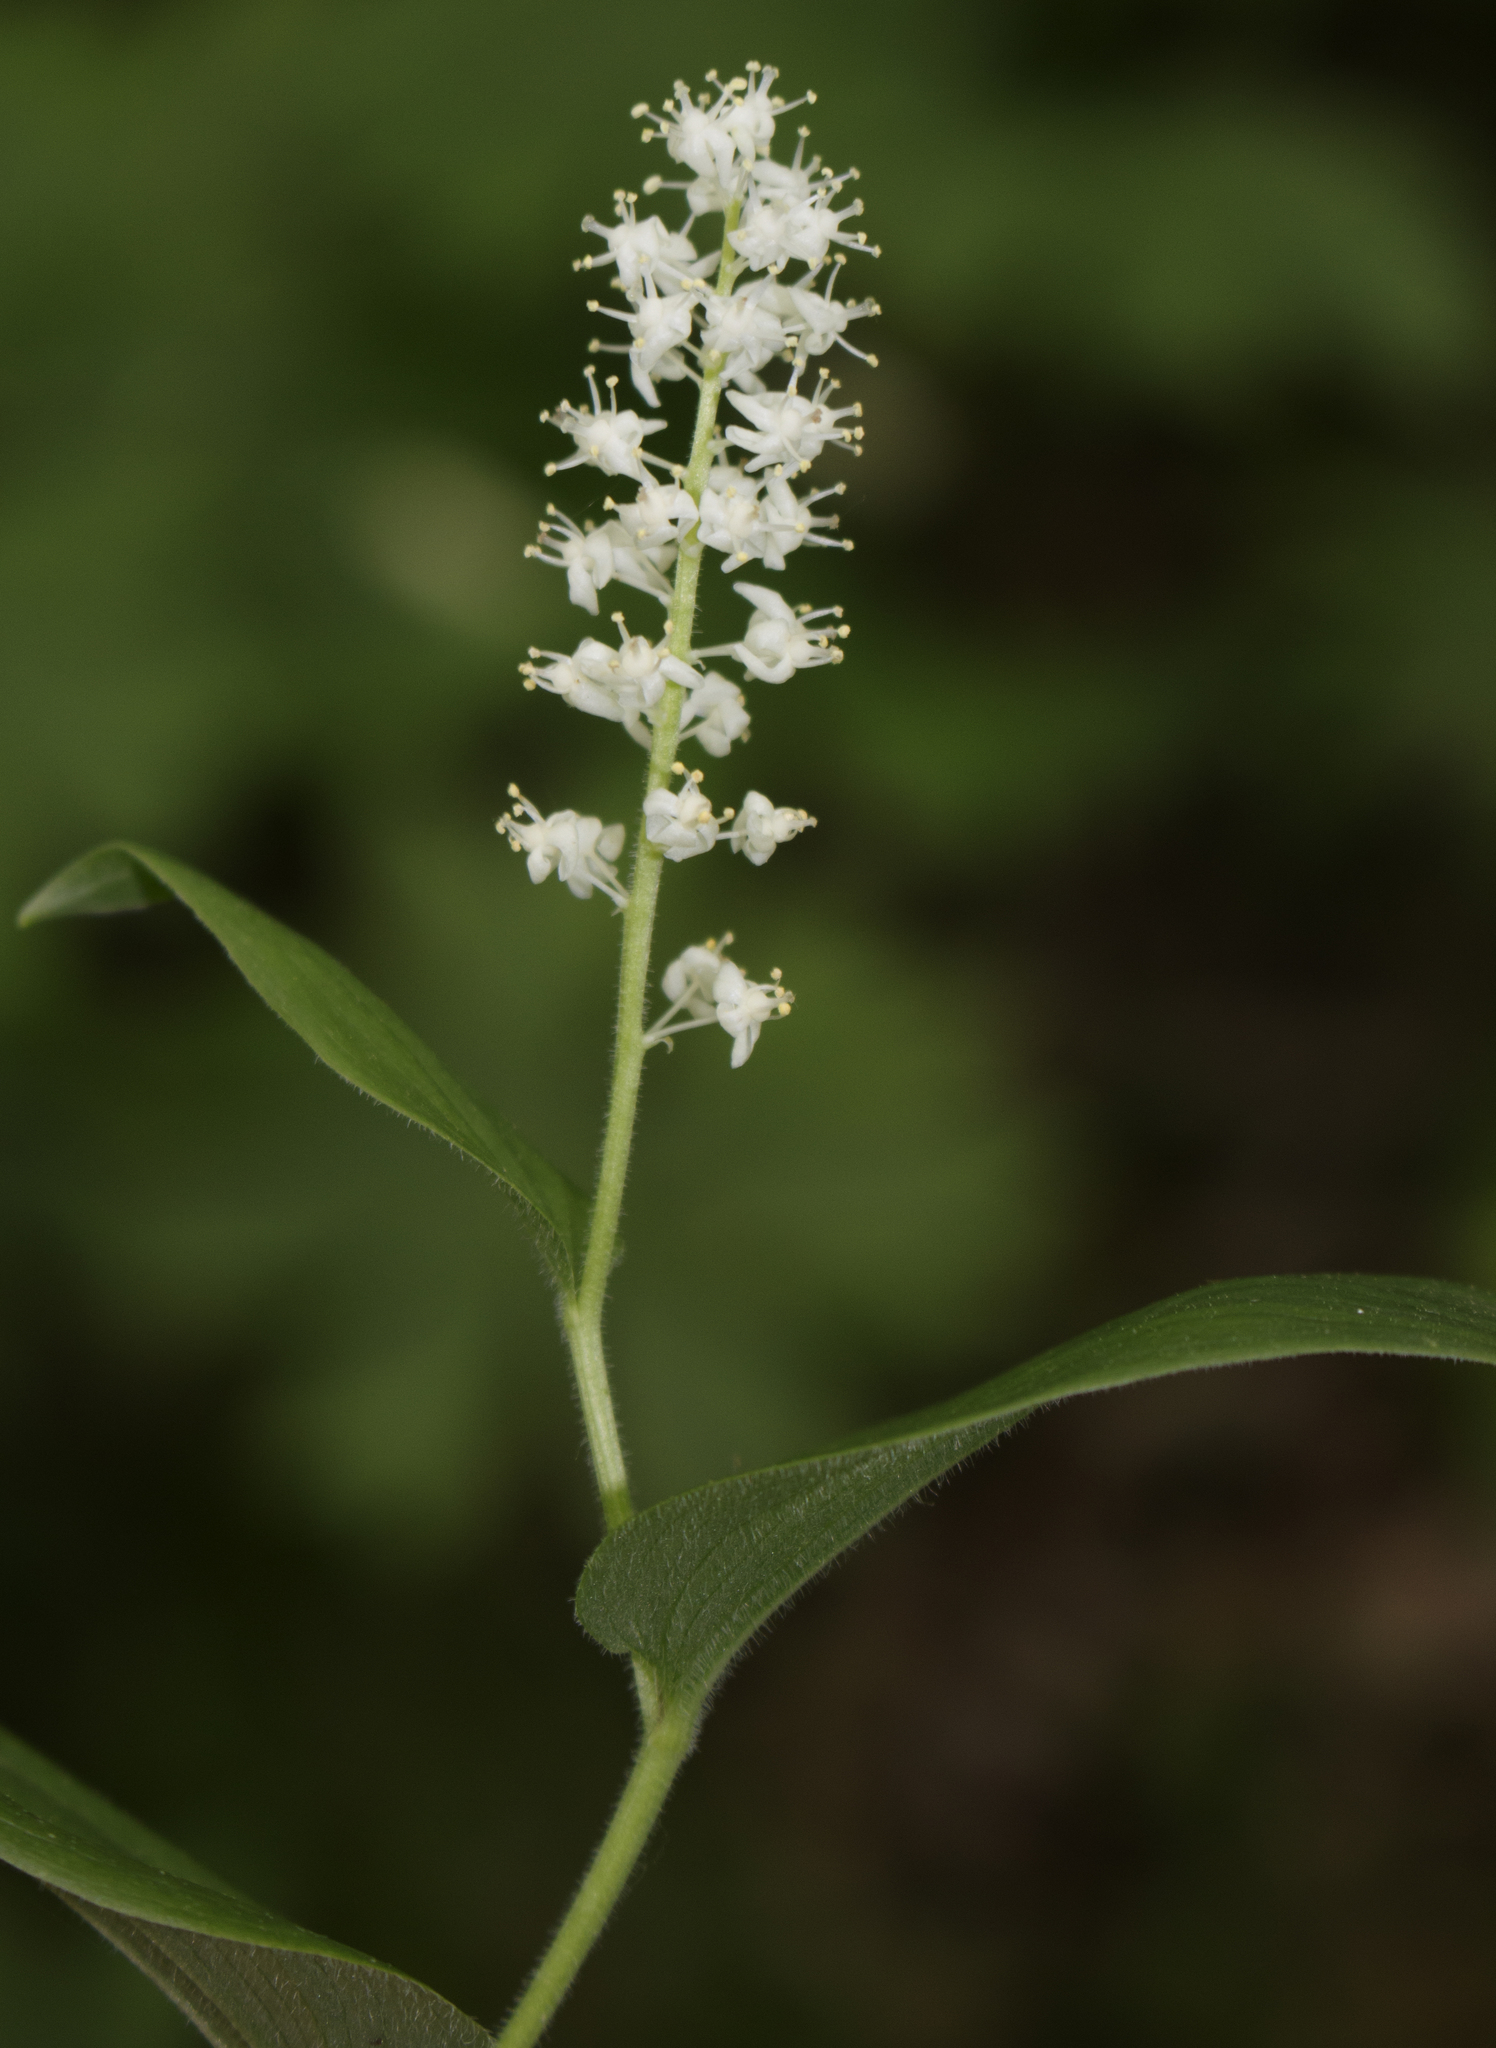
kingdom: Plantae
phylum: Tracheophyta
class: Liliopsida
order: Asparagales
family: Asparagaceae
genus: Maianthemum
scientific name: Maianthemum canadense
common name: False lily-of-the-valley
